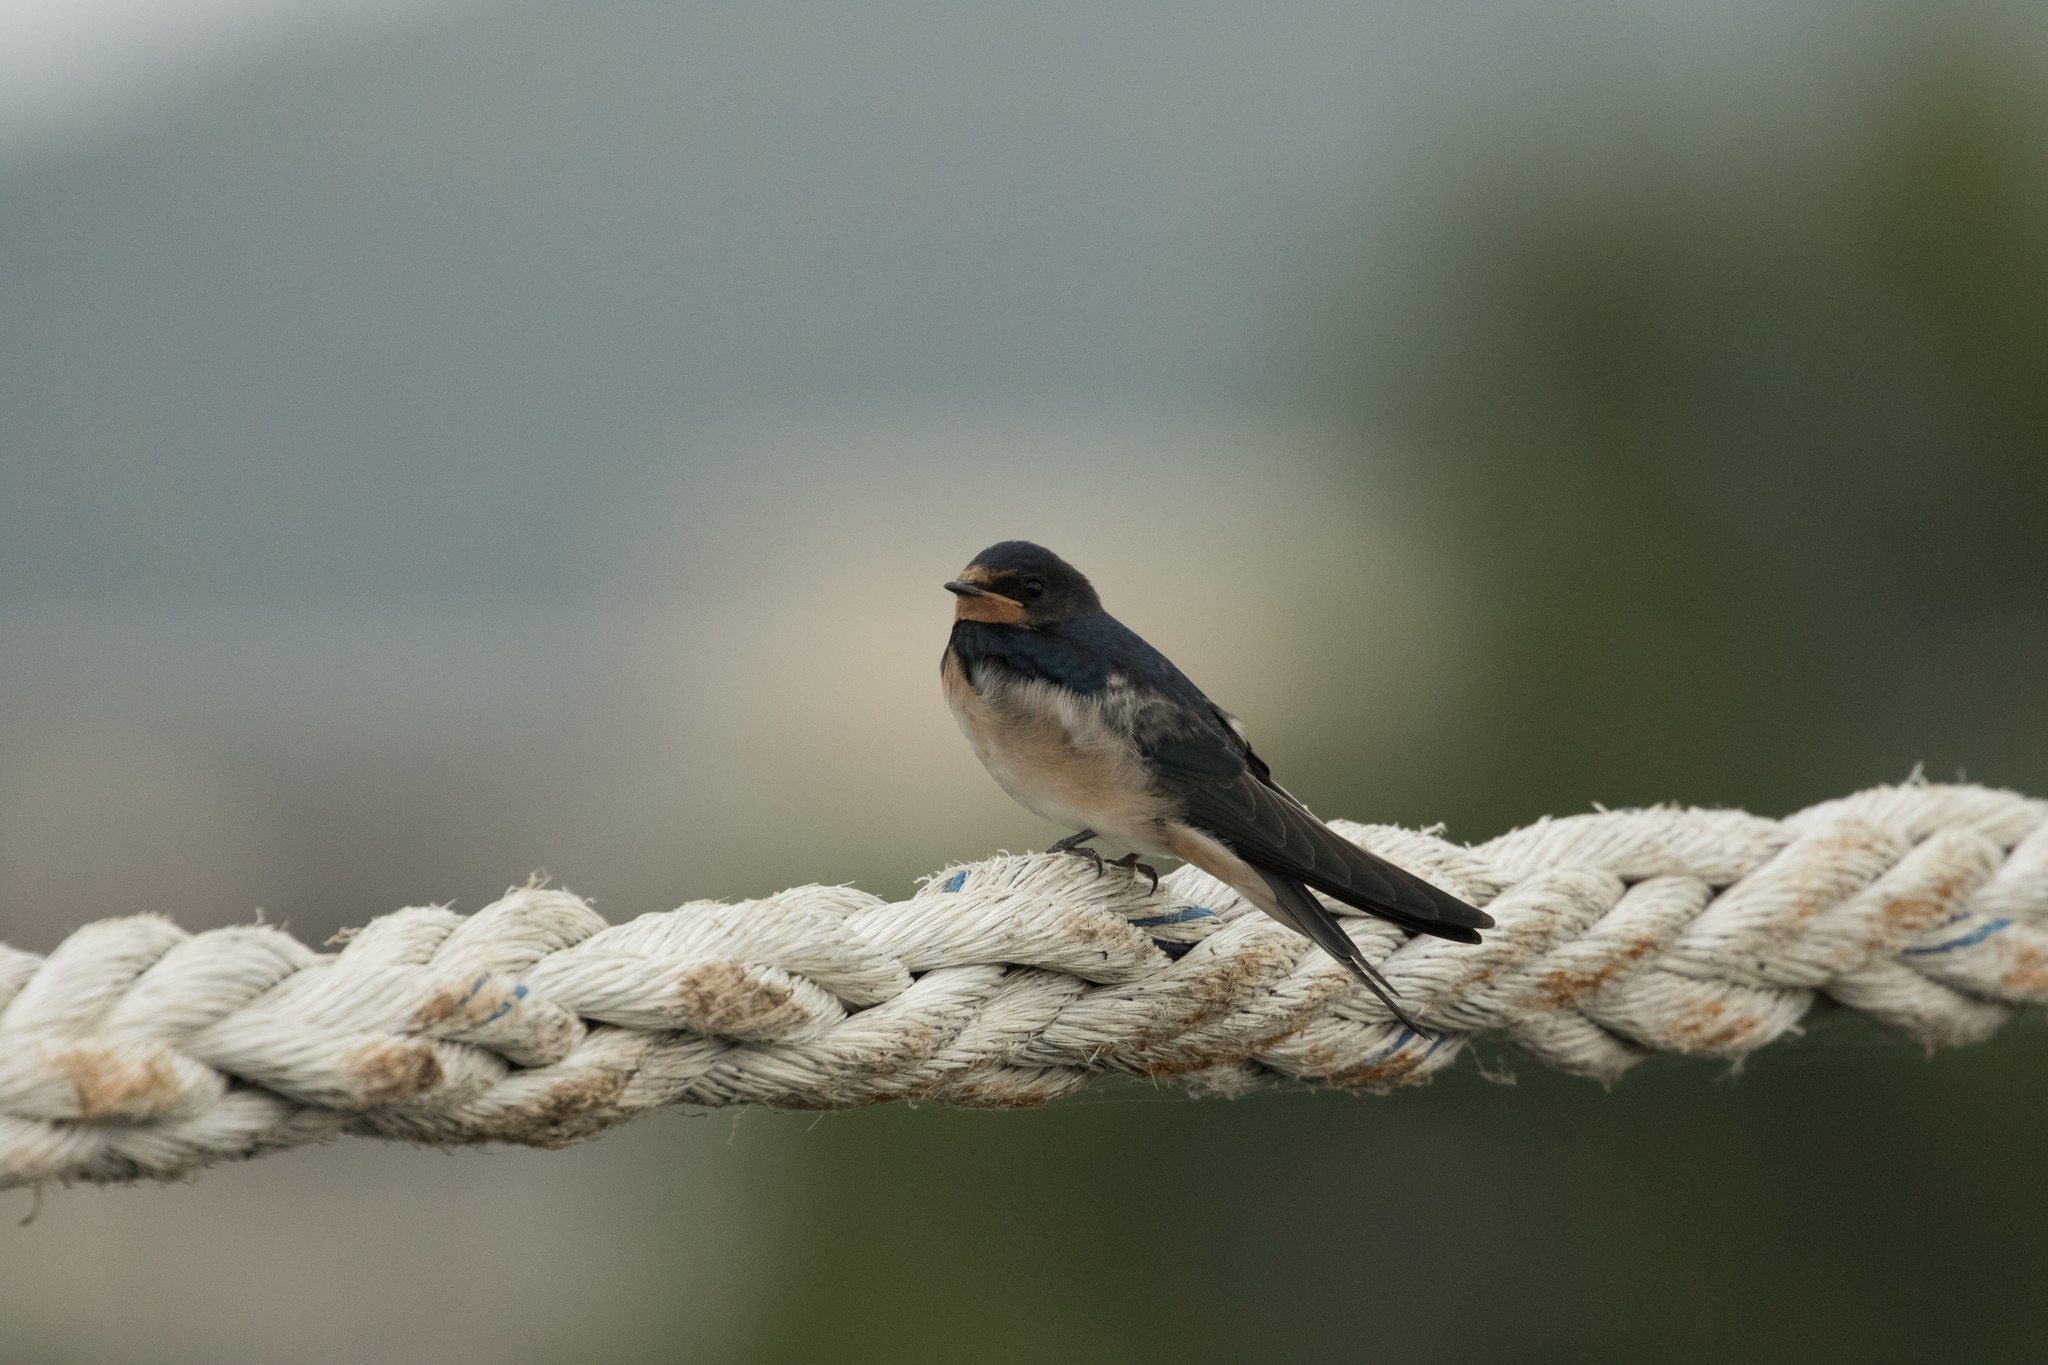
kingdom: Animalia
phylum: Chordata
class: Aves
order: Passeriformes
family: Hirundinidae
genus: Hirundo
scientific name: Hirundo rustica
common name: Barn swallow
